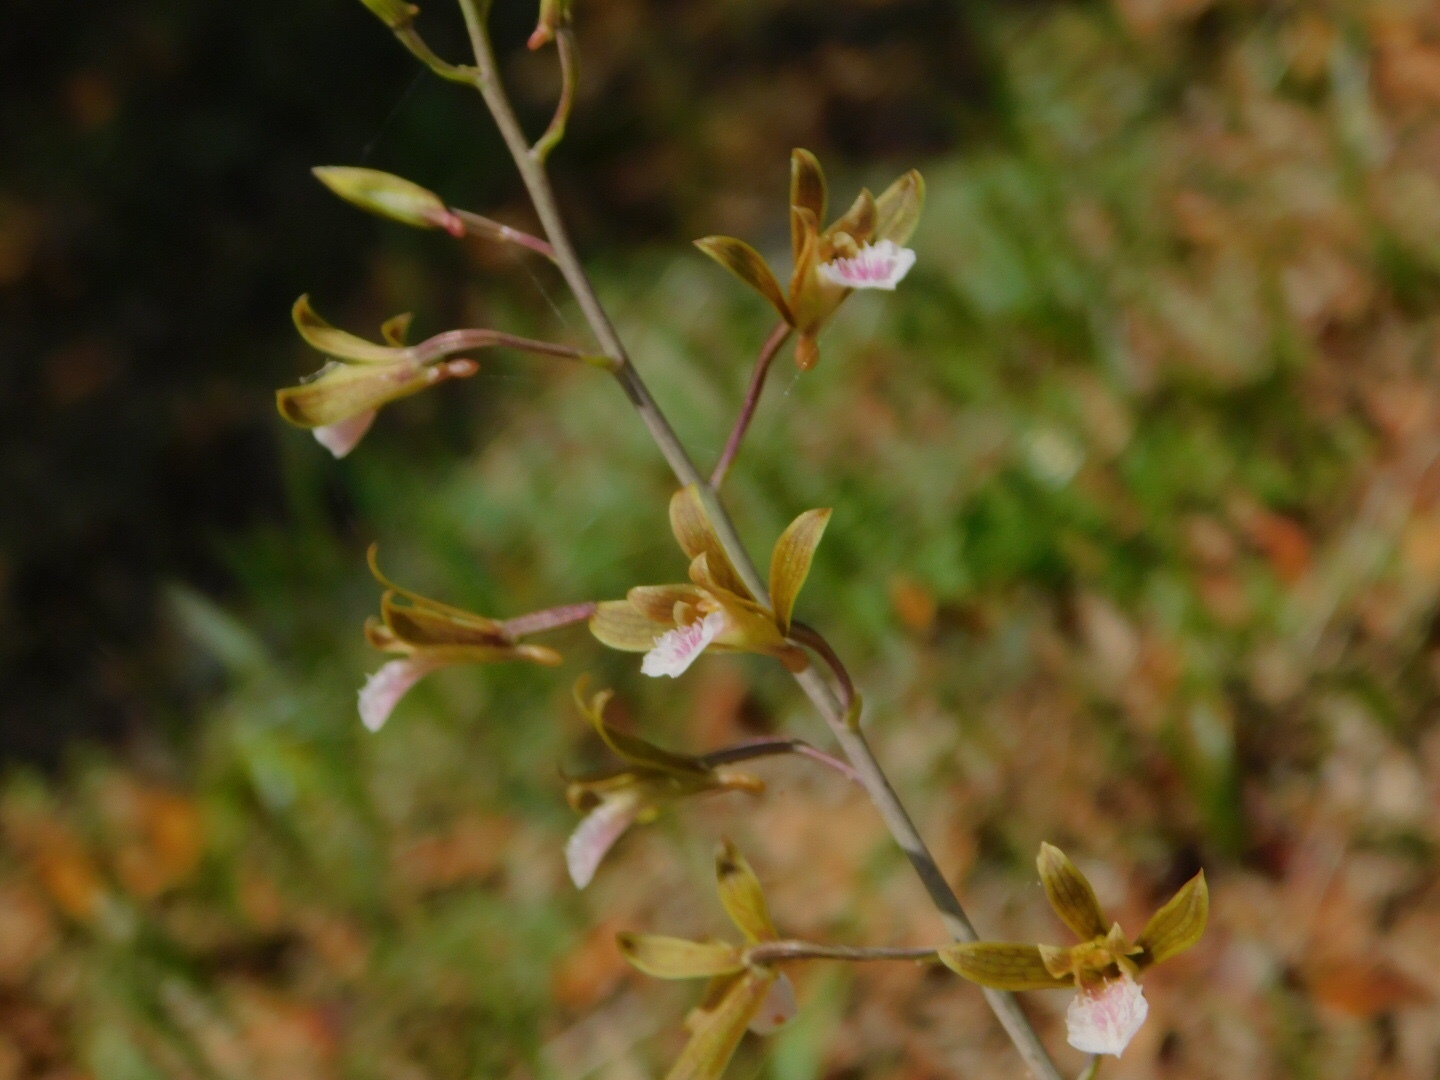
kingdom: Plantae
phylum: Tracheophyta
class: Liliopsida
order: Asparagales
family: Orchidaceae
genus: Eulophia
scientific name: Eulophia graminea
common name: Orchid
